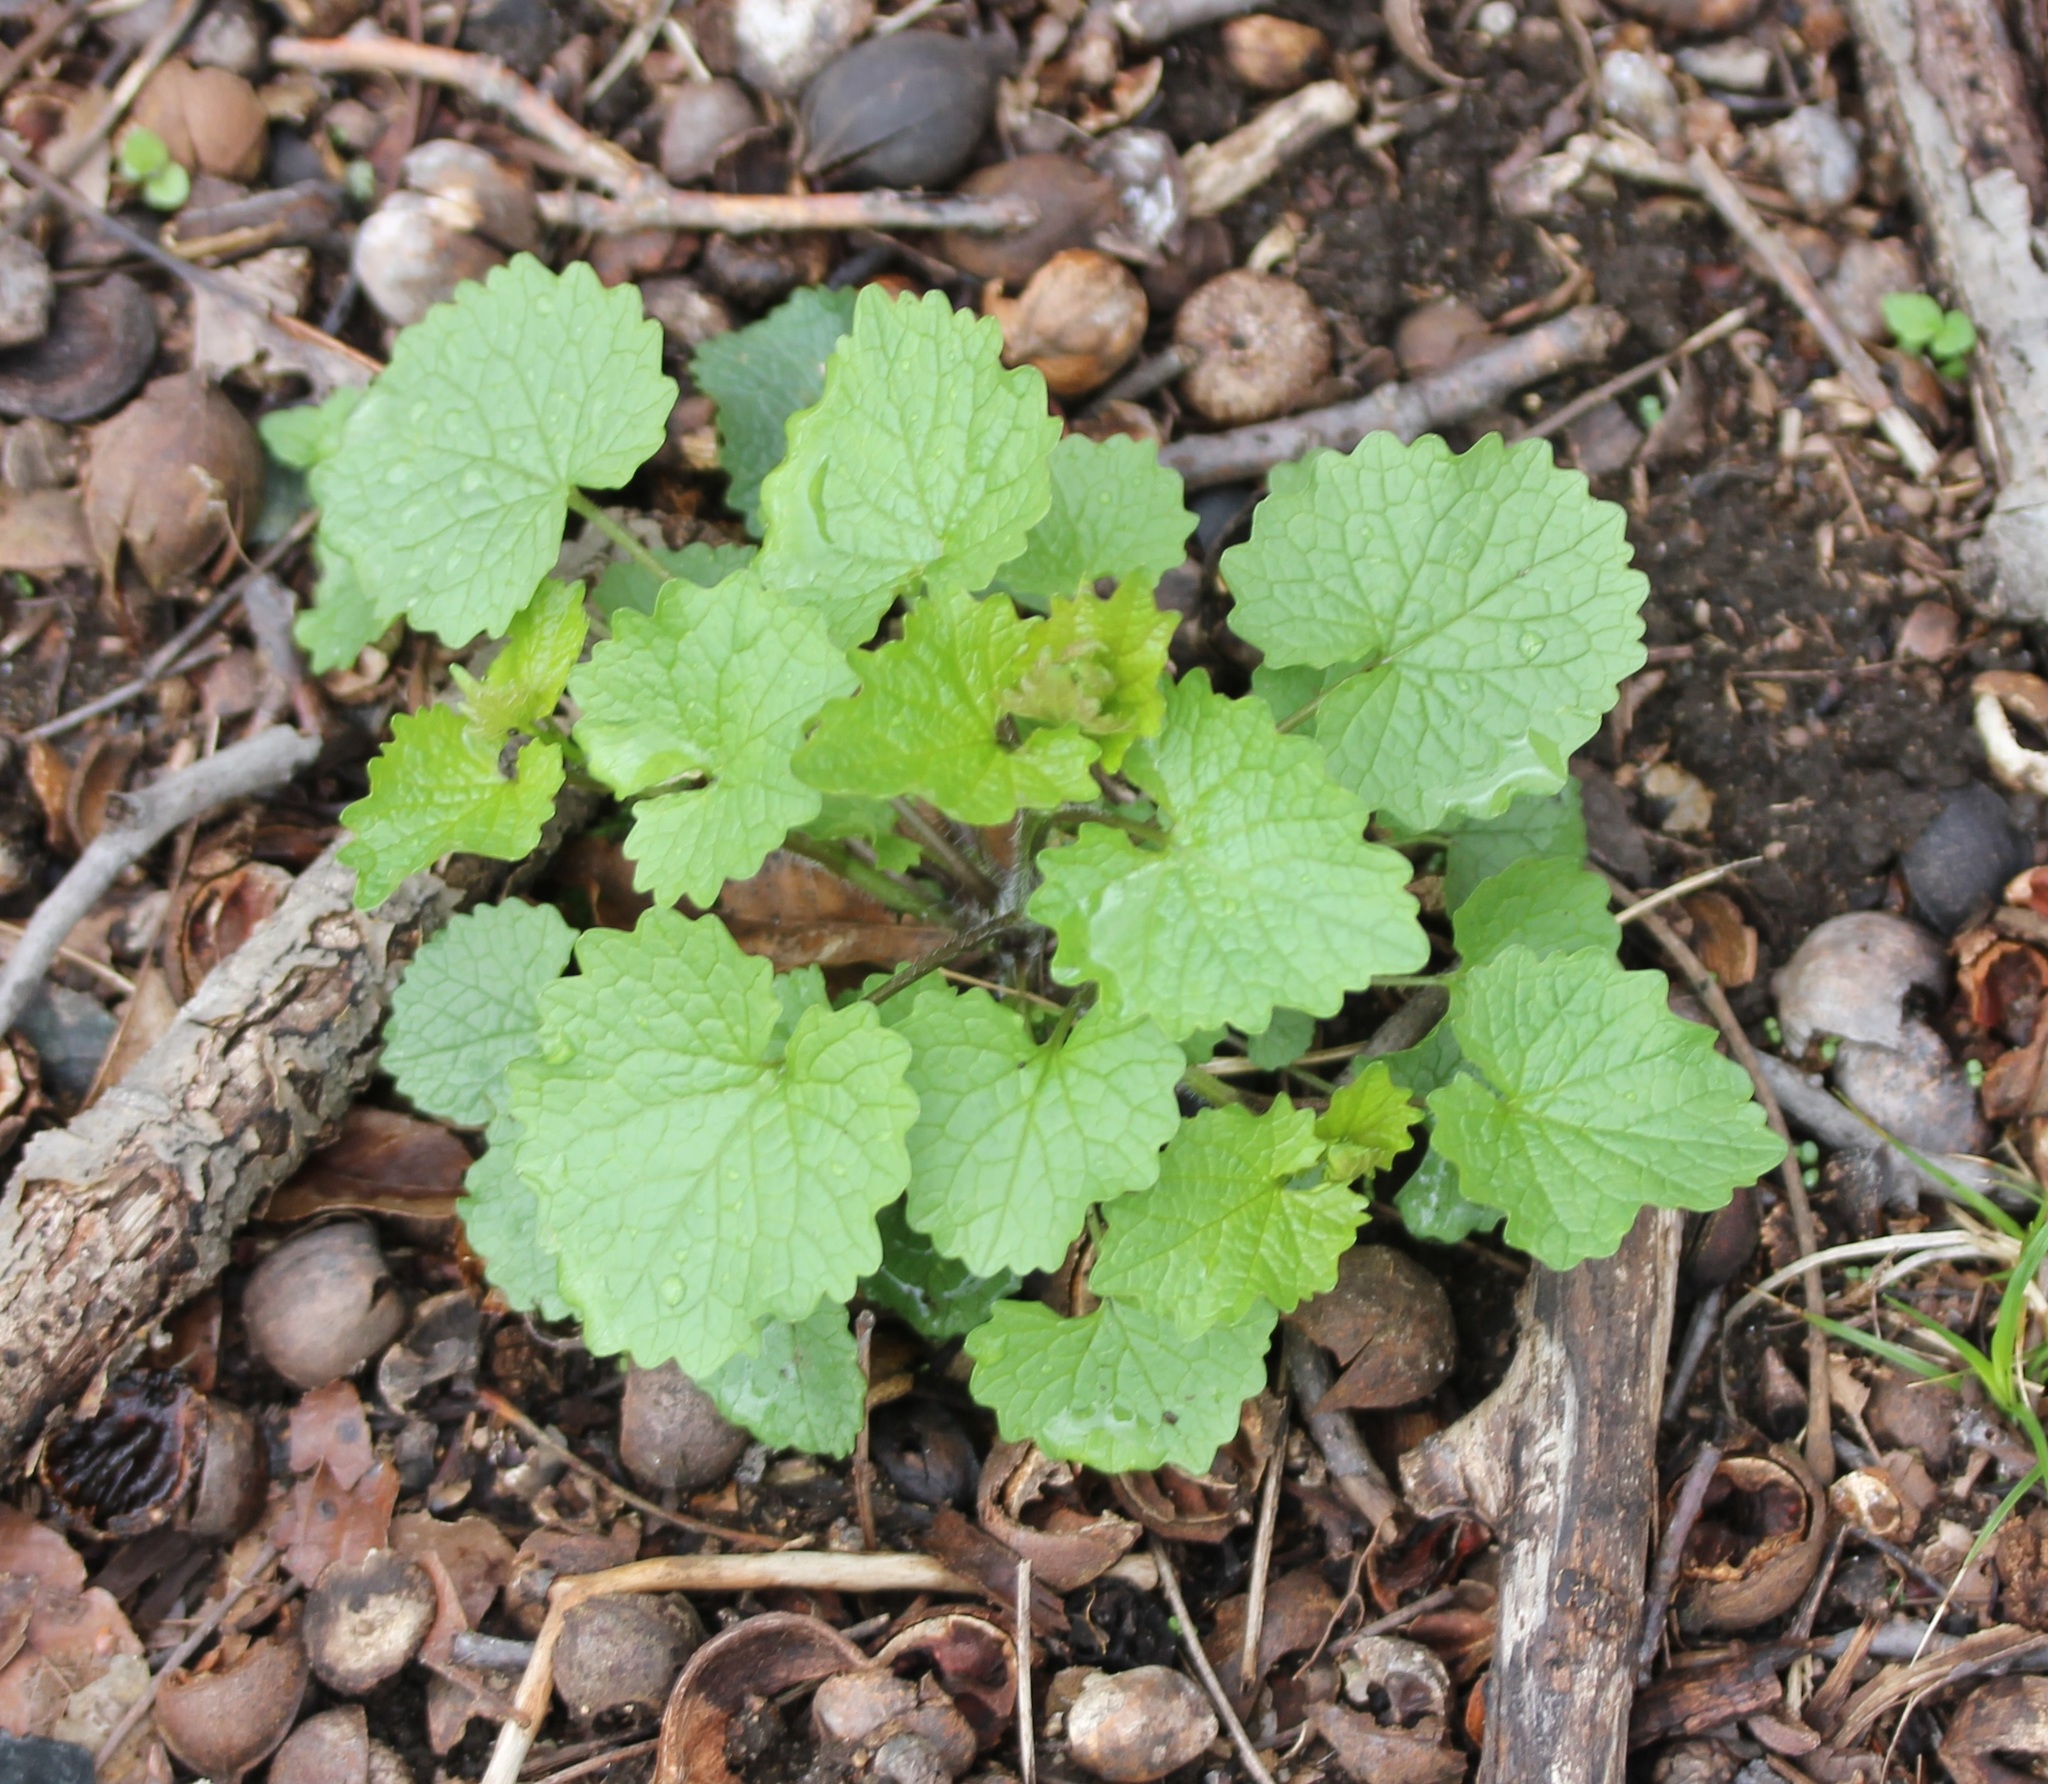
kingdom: Plantae
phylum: Tracheophyta
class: Magnoliopsida
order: Brassicales
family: Brassicaceae
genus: Alliaria
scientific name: Alliaria petiolata
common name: Garlic mustard
